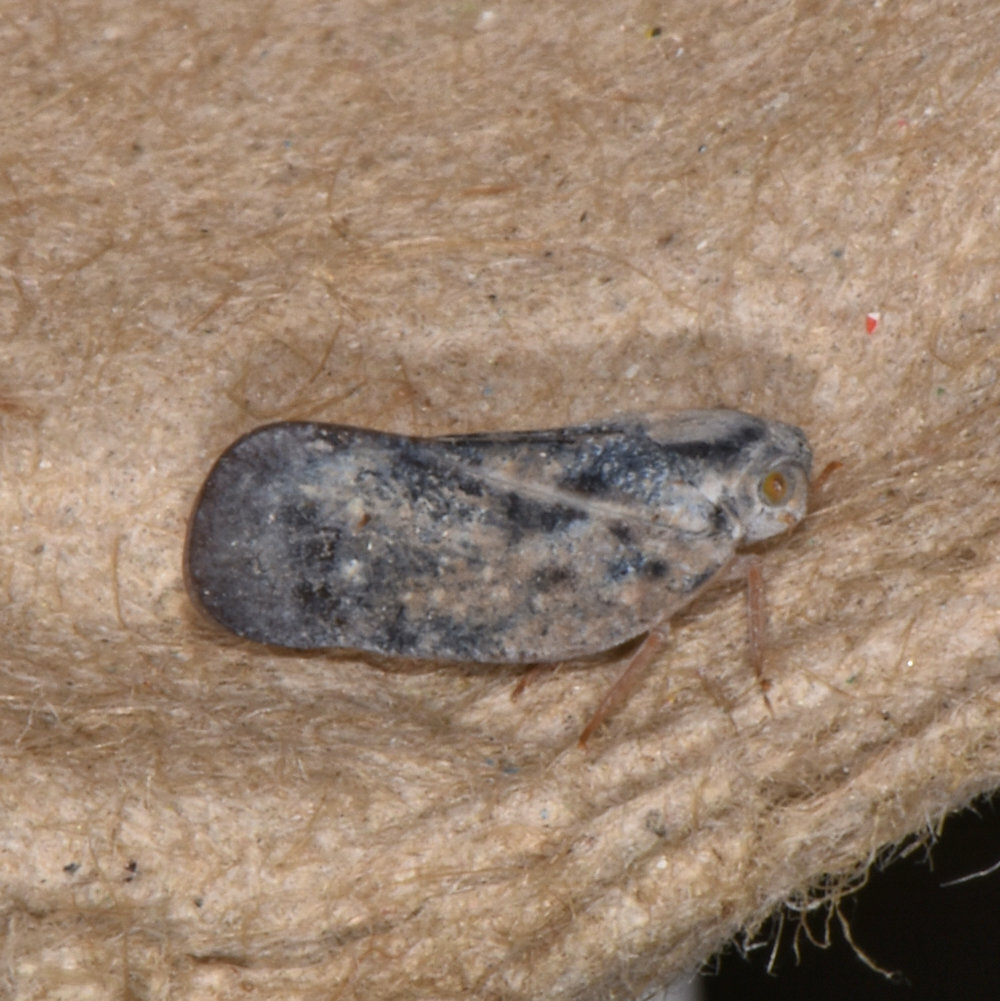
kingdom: Animalia
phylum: Arthropoda
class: Insecta
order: Hemiptera
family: Flatidae
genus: Metcalfa
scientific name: Metcalfa pruinosa
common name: Citrus flatid planthopper
